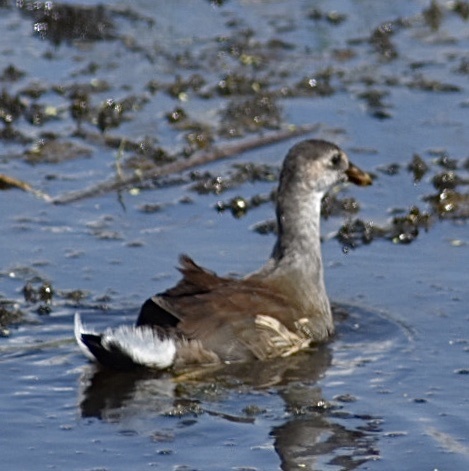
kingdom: Animalia
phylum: Chordata
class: Aves
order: Gruiformes
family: Rallidae
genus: Gallinula
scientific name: Gallinula chloropus
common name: Common moorhen
